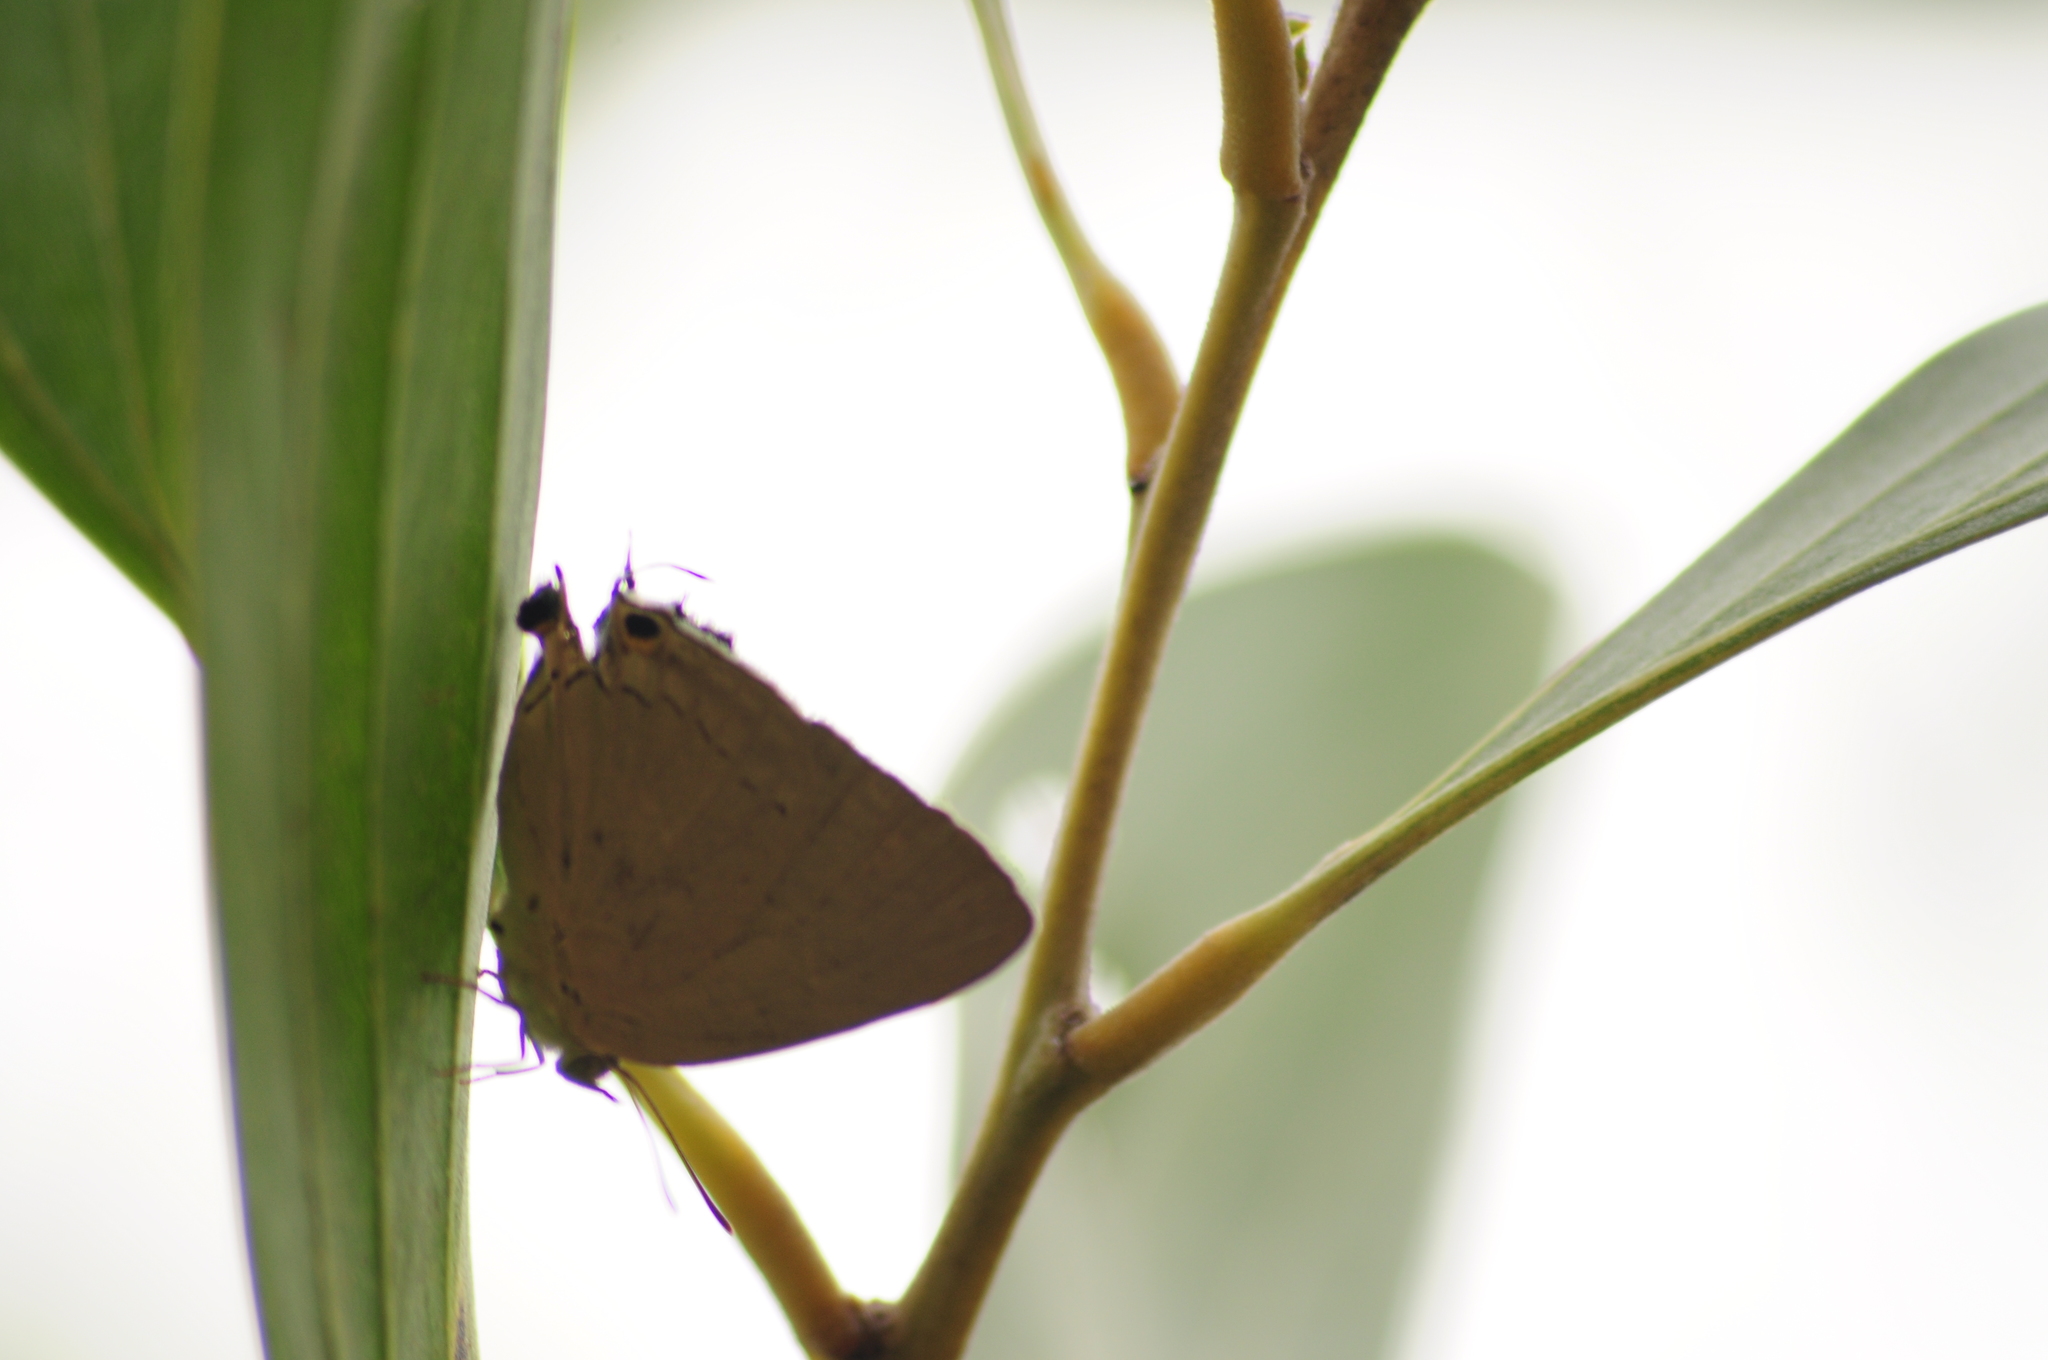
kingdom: Animalia
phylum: Arthropoda
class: Insecta
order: Lepidoptera
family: Lycaenidae
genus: Tajuria
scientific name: Tajuria cippus
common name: Peacock royal
